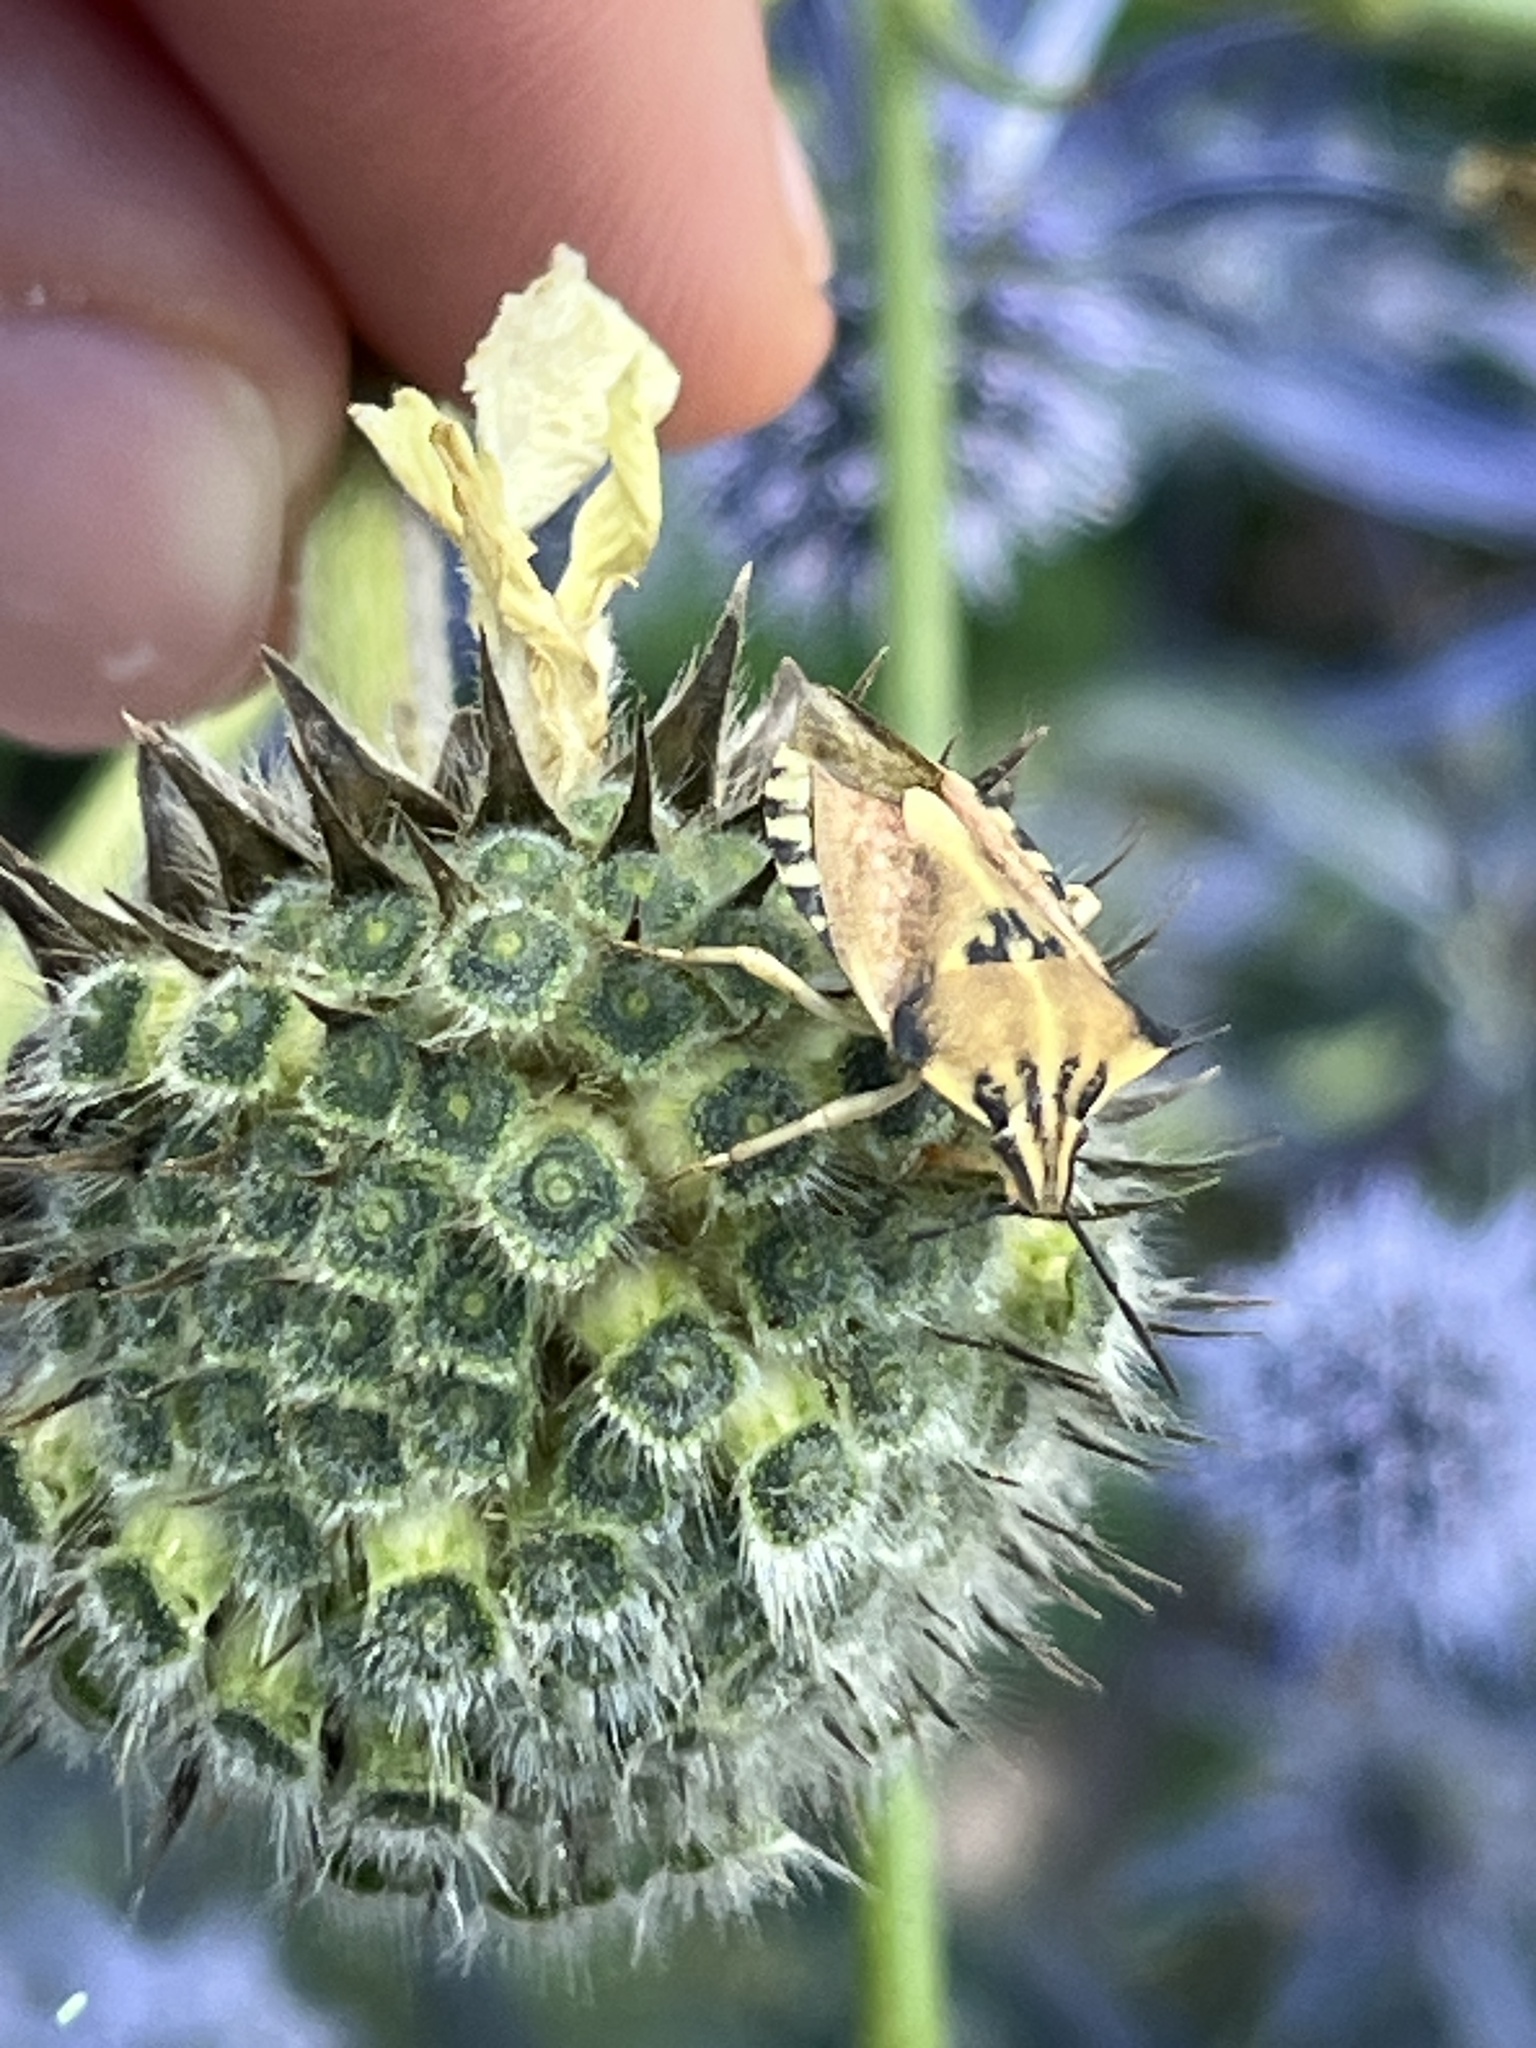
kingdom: Animalia
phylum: Arthropoda
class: Insecta
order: Hemiptera
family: Pentatomidae
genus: Carpocoris
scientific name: Carpocoris fuscispinus
